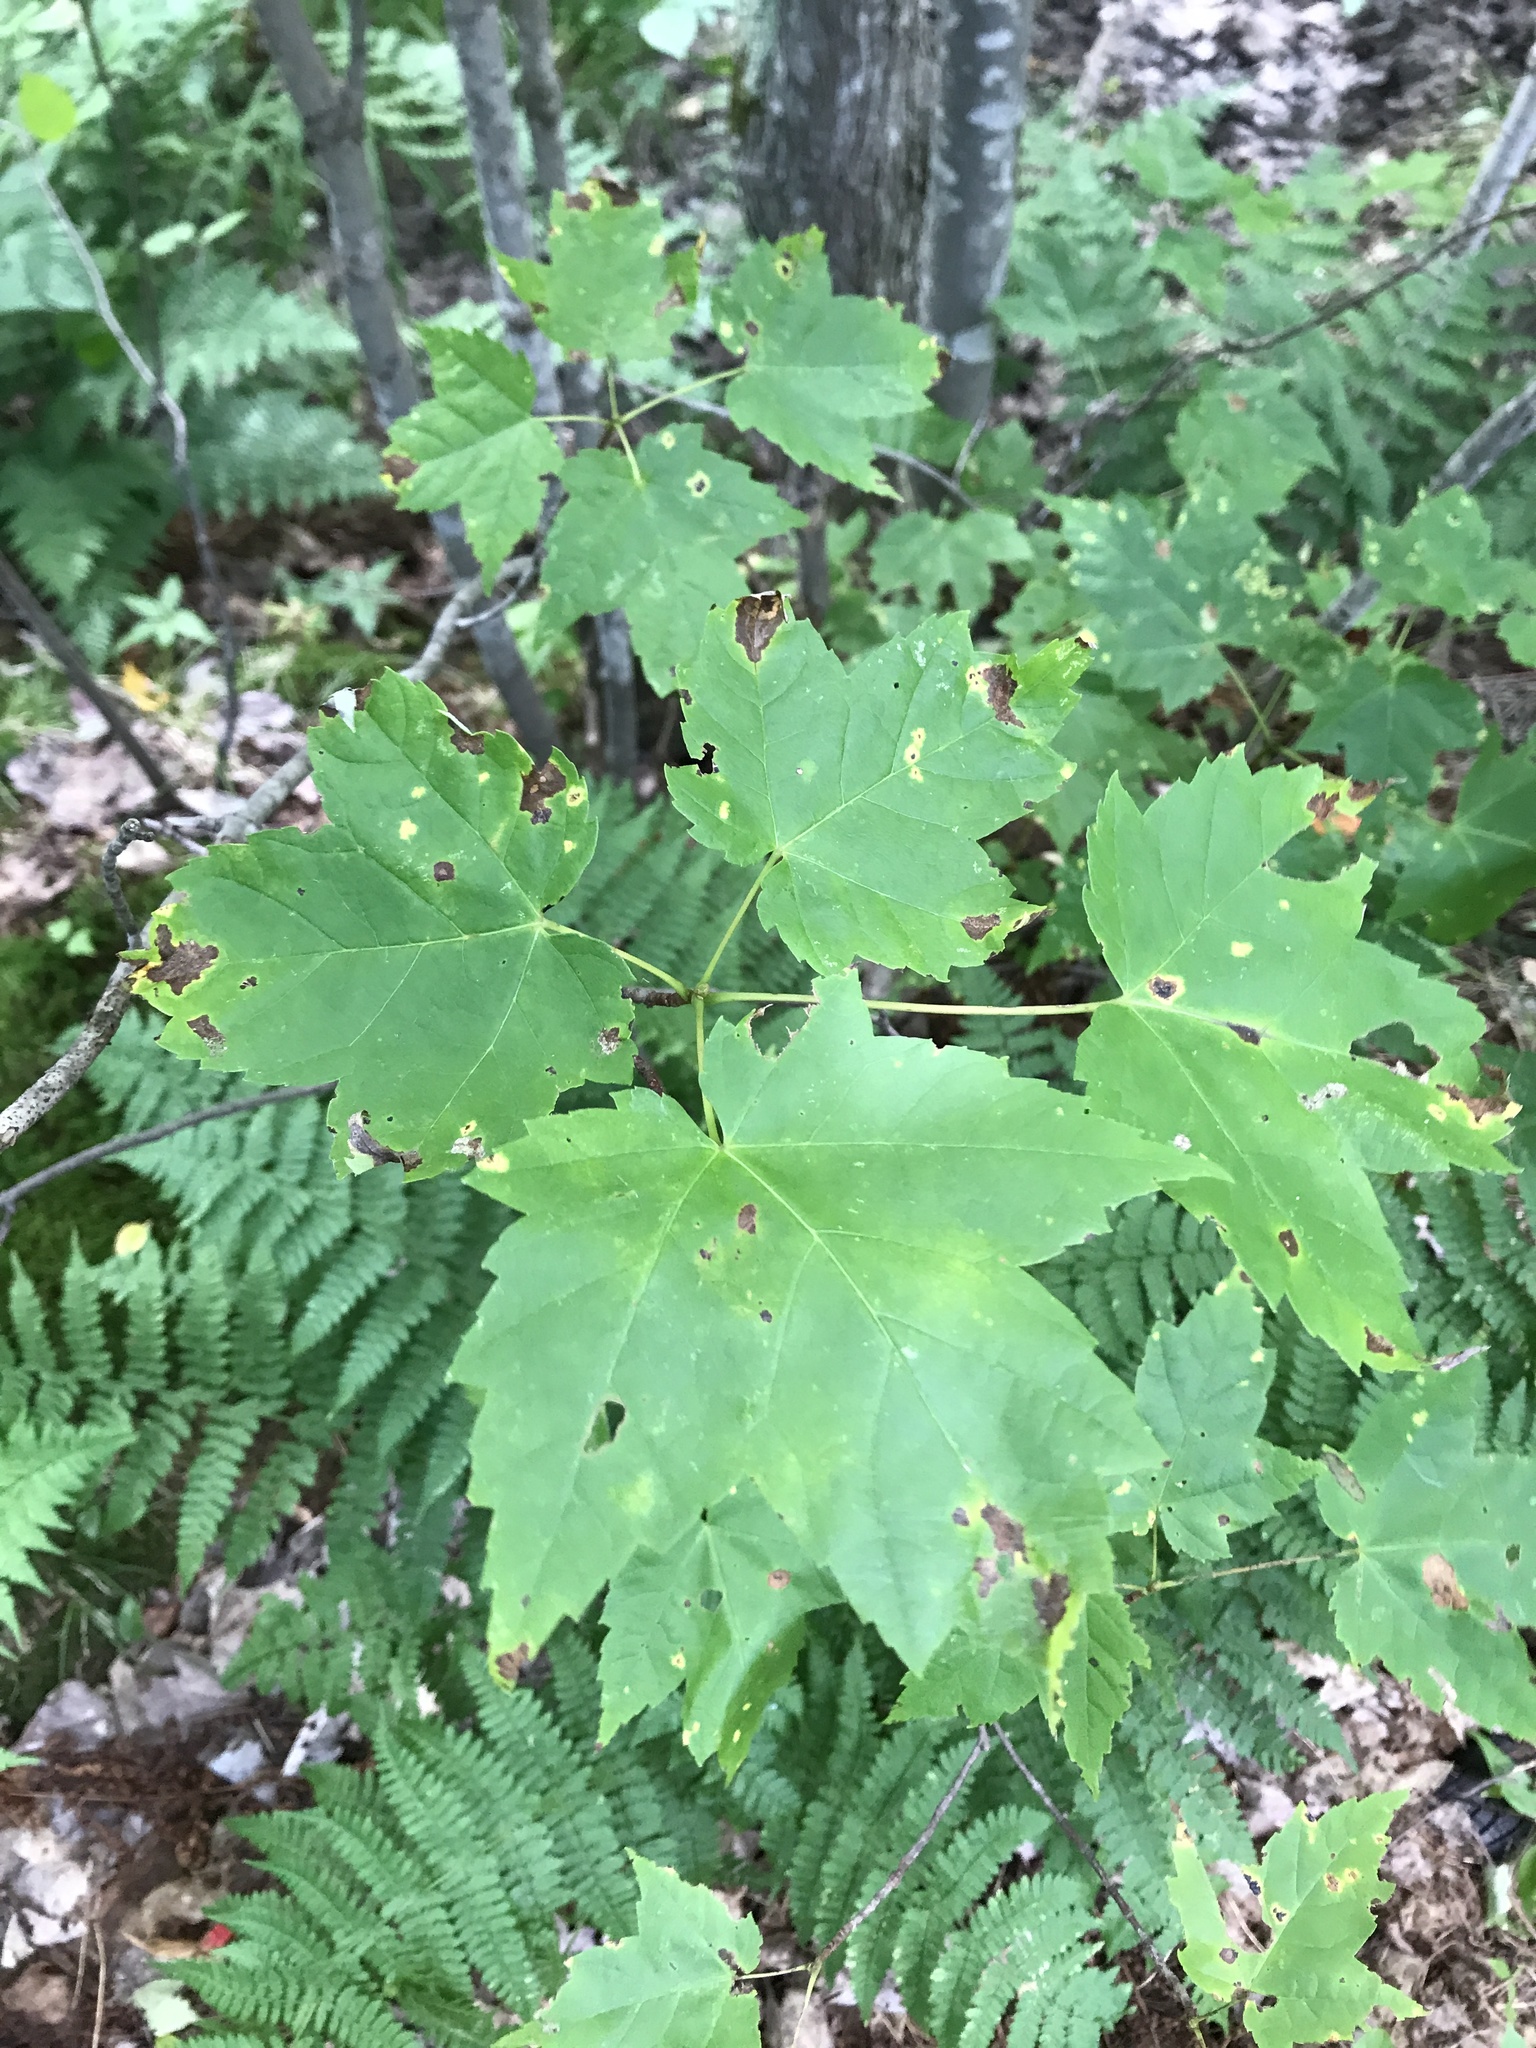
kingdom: Plantae
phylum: Tracheophyta
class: Magnoliopsida
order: Sapindales
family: Sapindaceae
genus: Acer
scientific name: Acer rubrum
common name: Red maple
